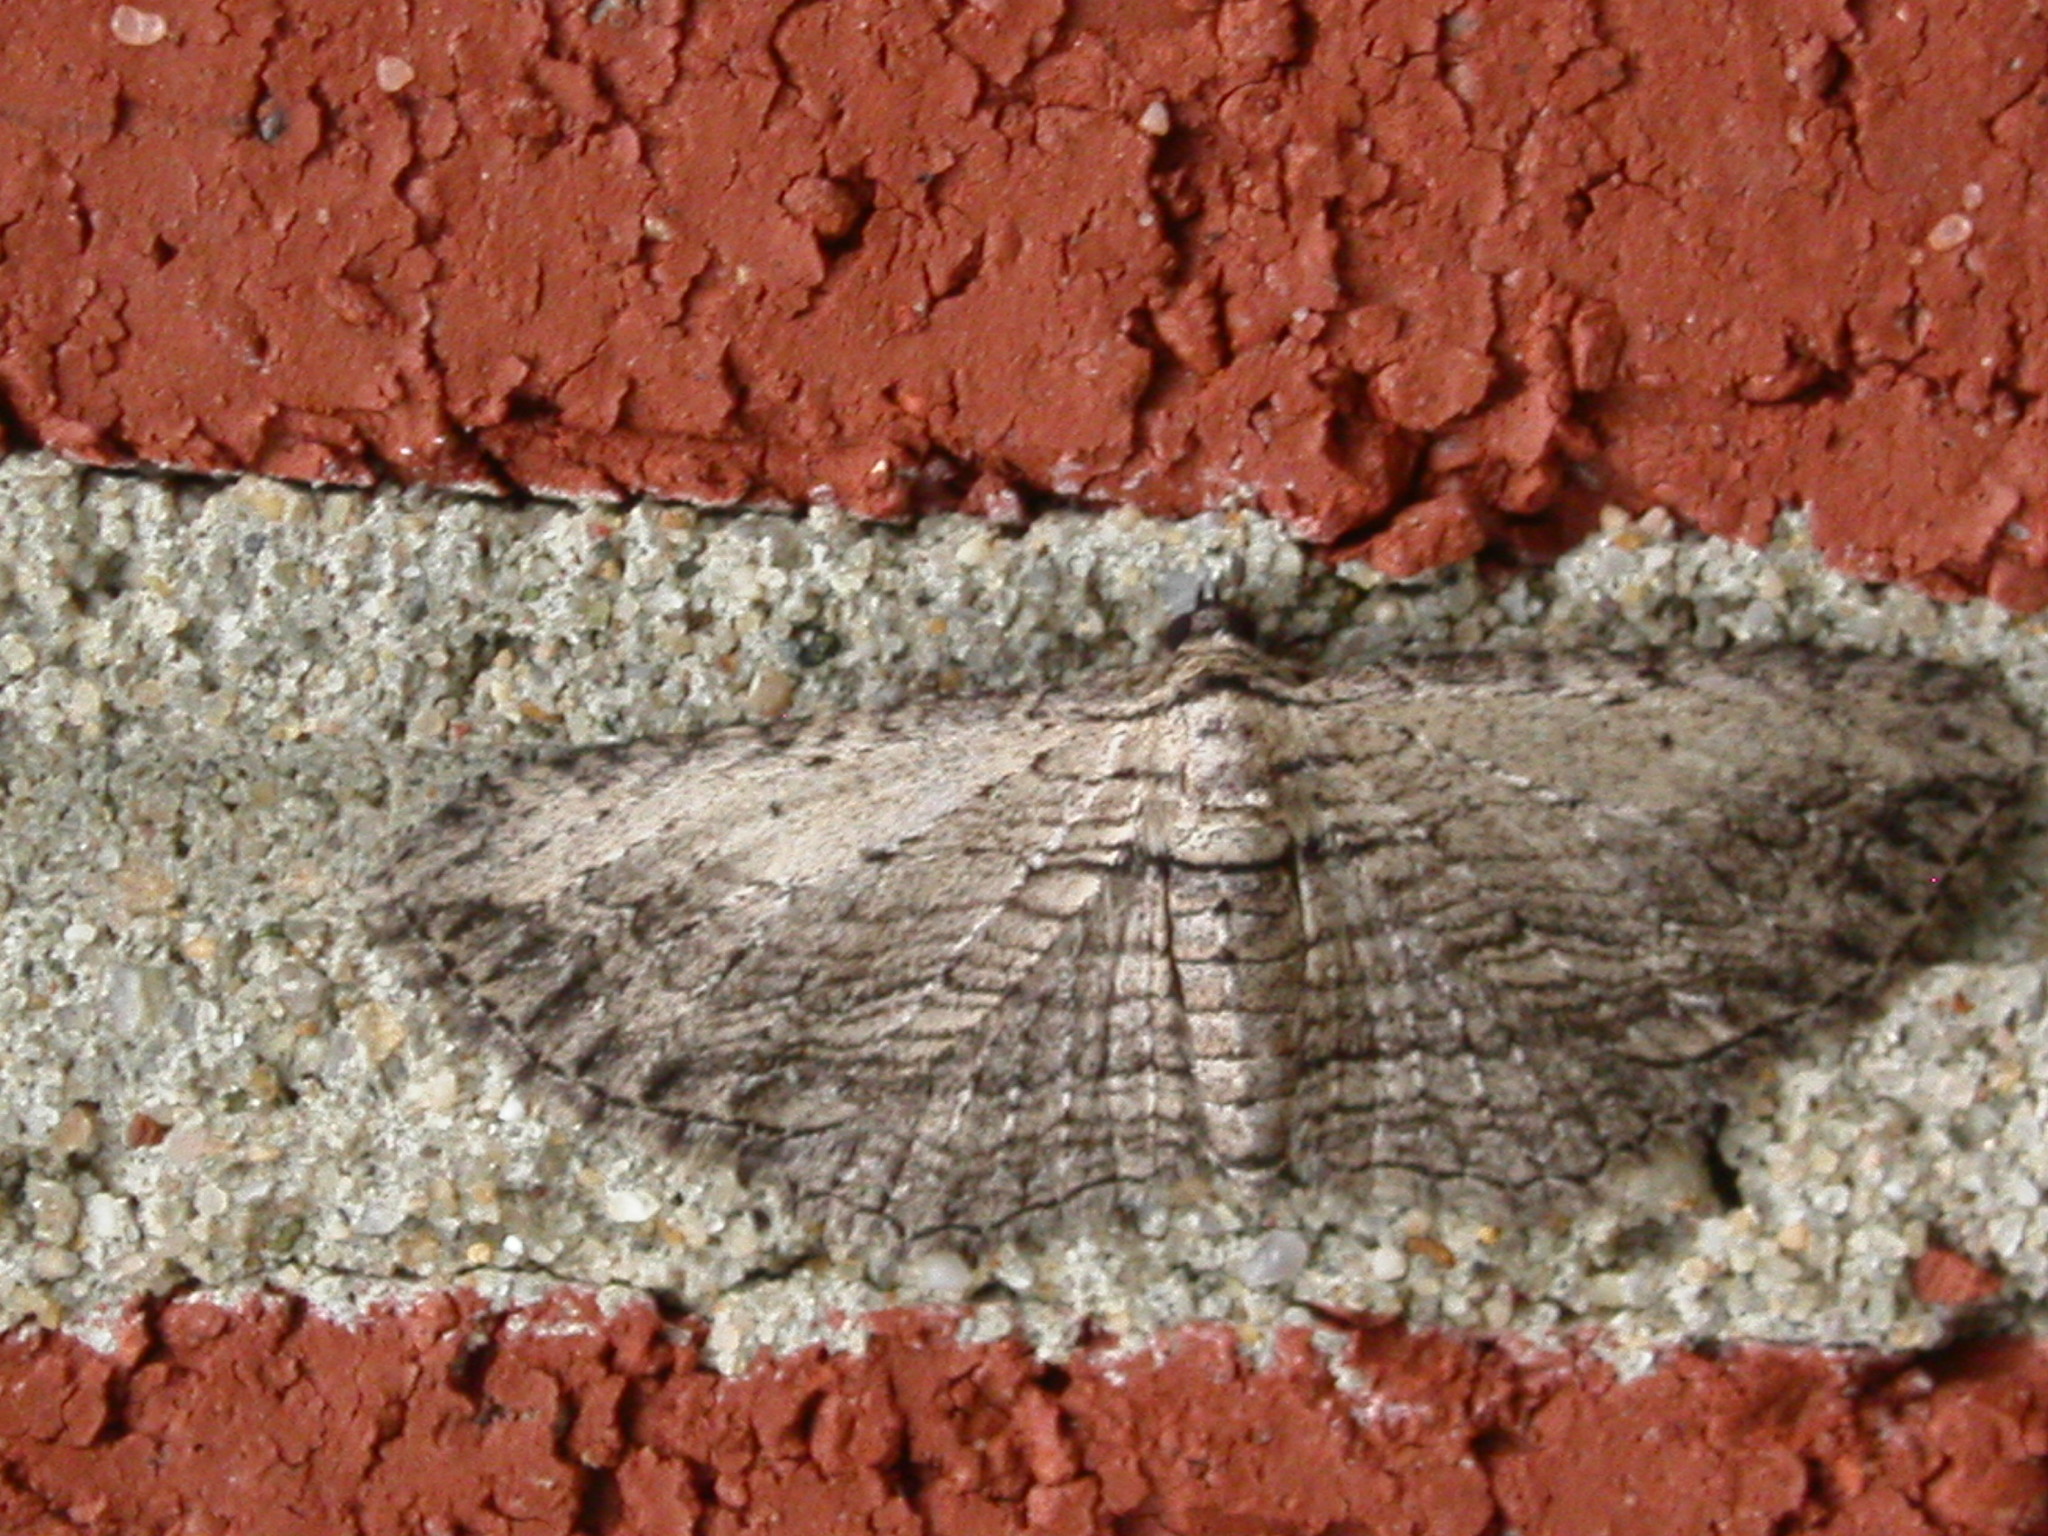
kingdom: Animalia
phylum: Arthropoda
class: Insecta
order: Lepidoptera
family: Geometridae
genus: Horisme
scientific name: Horisme intestinata
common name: Brown bark carpet
